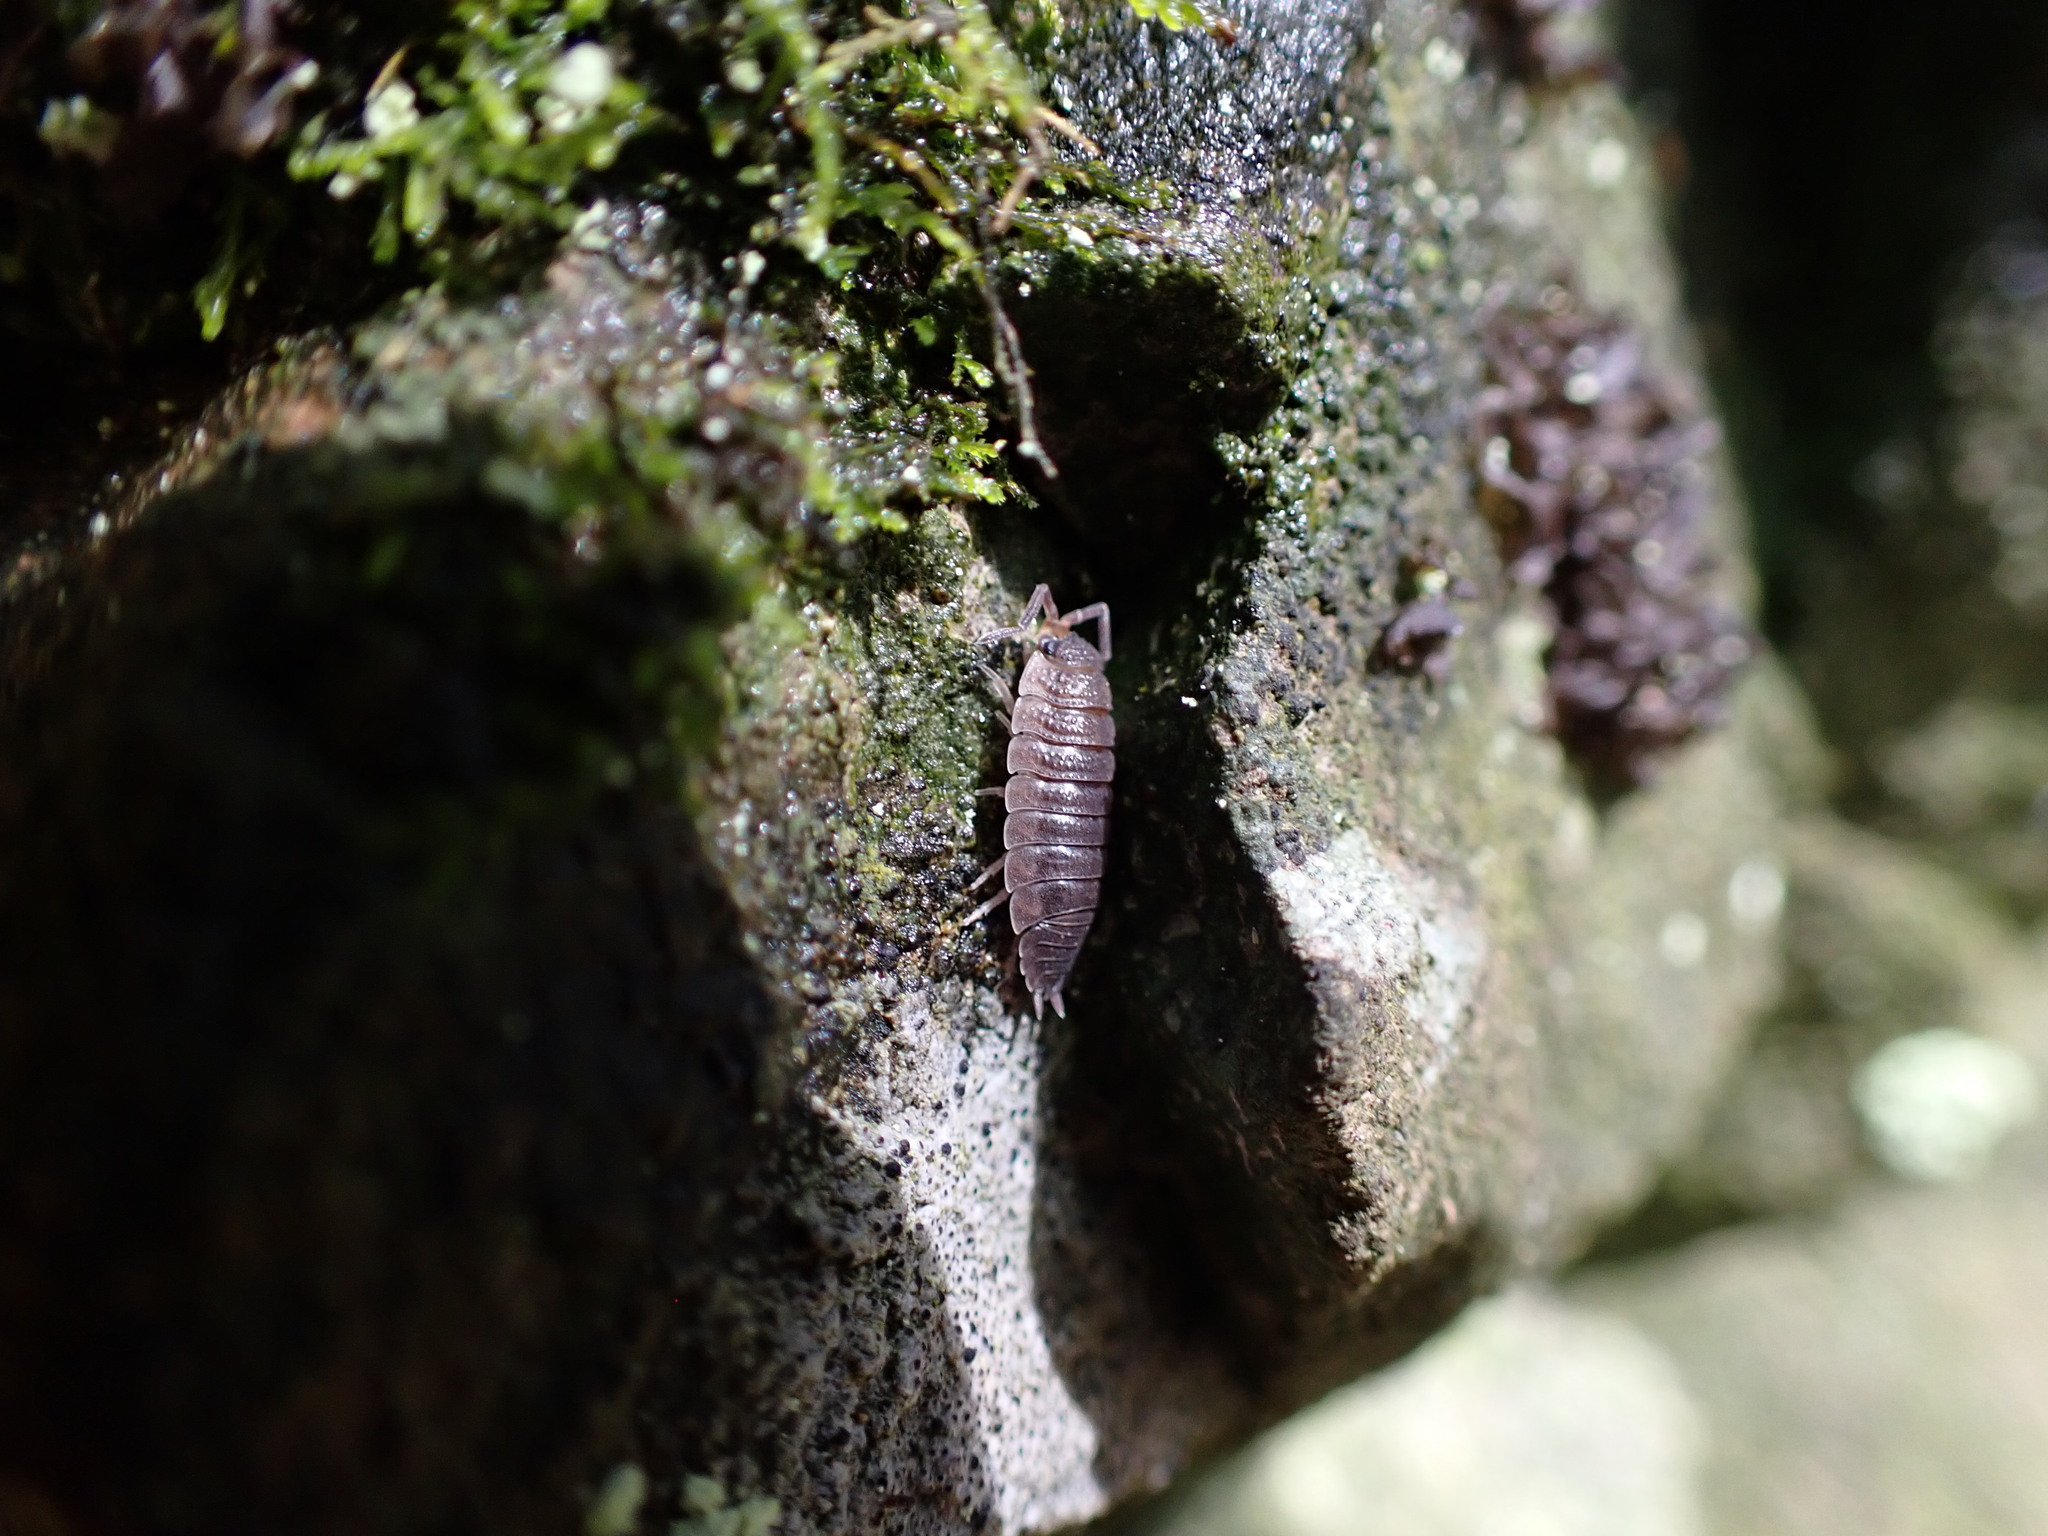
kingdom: Animalia
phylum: Arthropoda
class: Malacostraca
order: Isopoda
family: Porcellionidae
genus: Porcellio
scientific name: Porcellio scaber
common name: Common rough woodlouse
